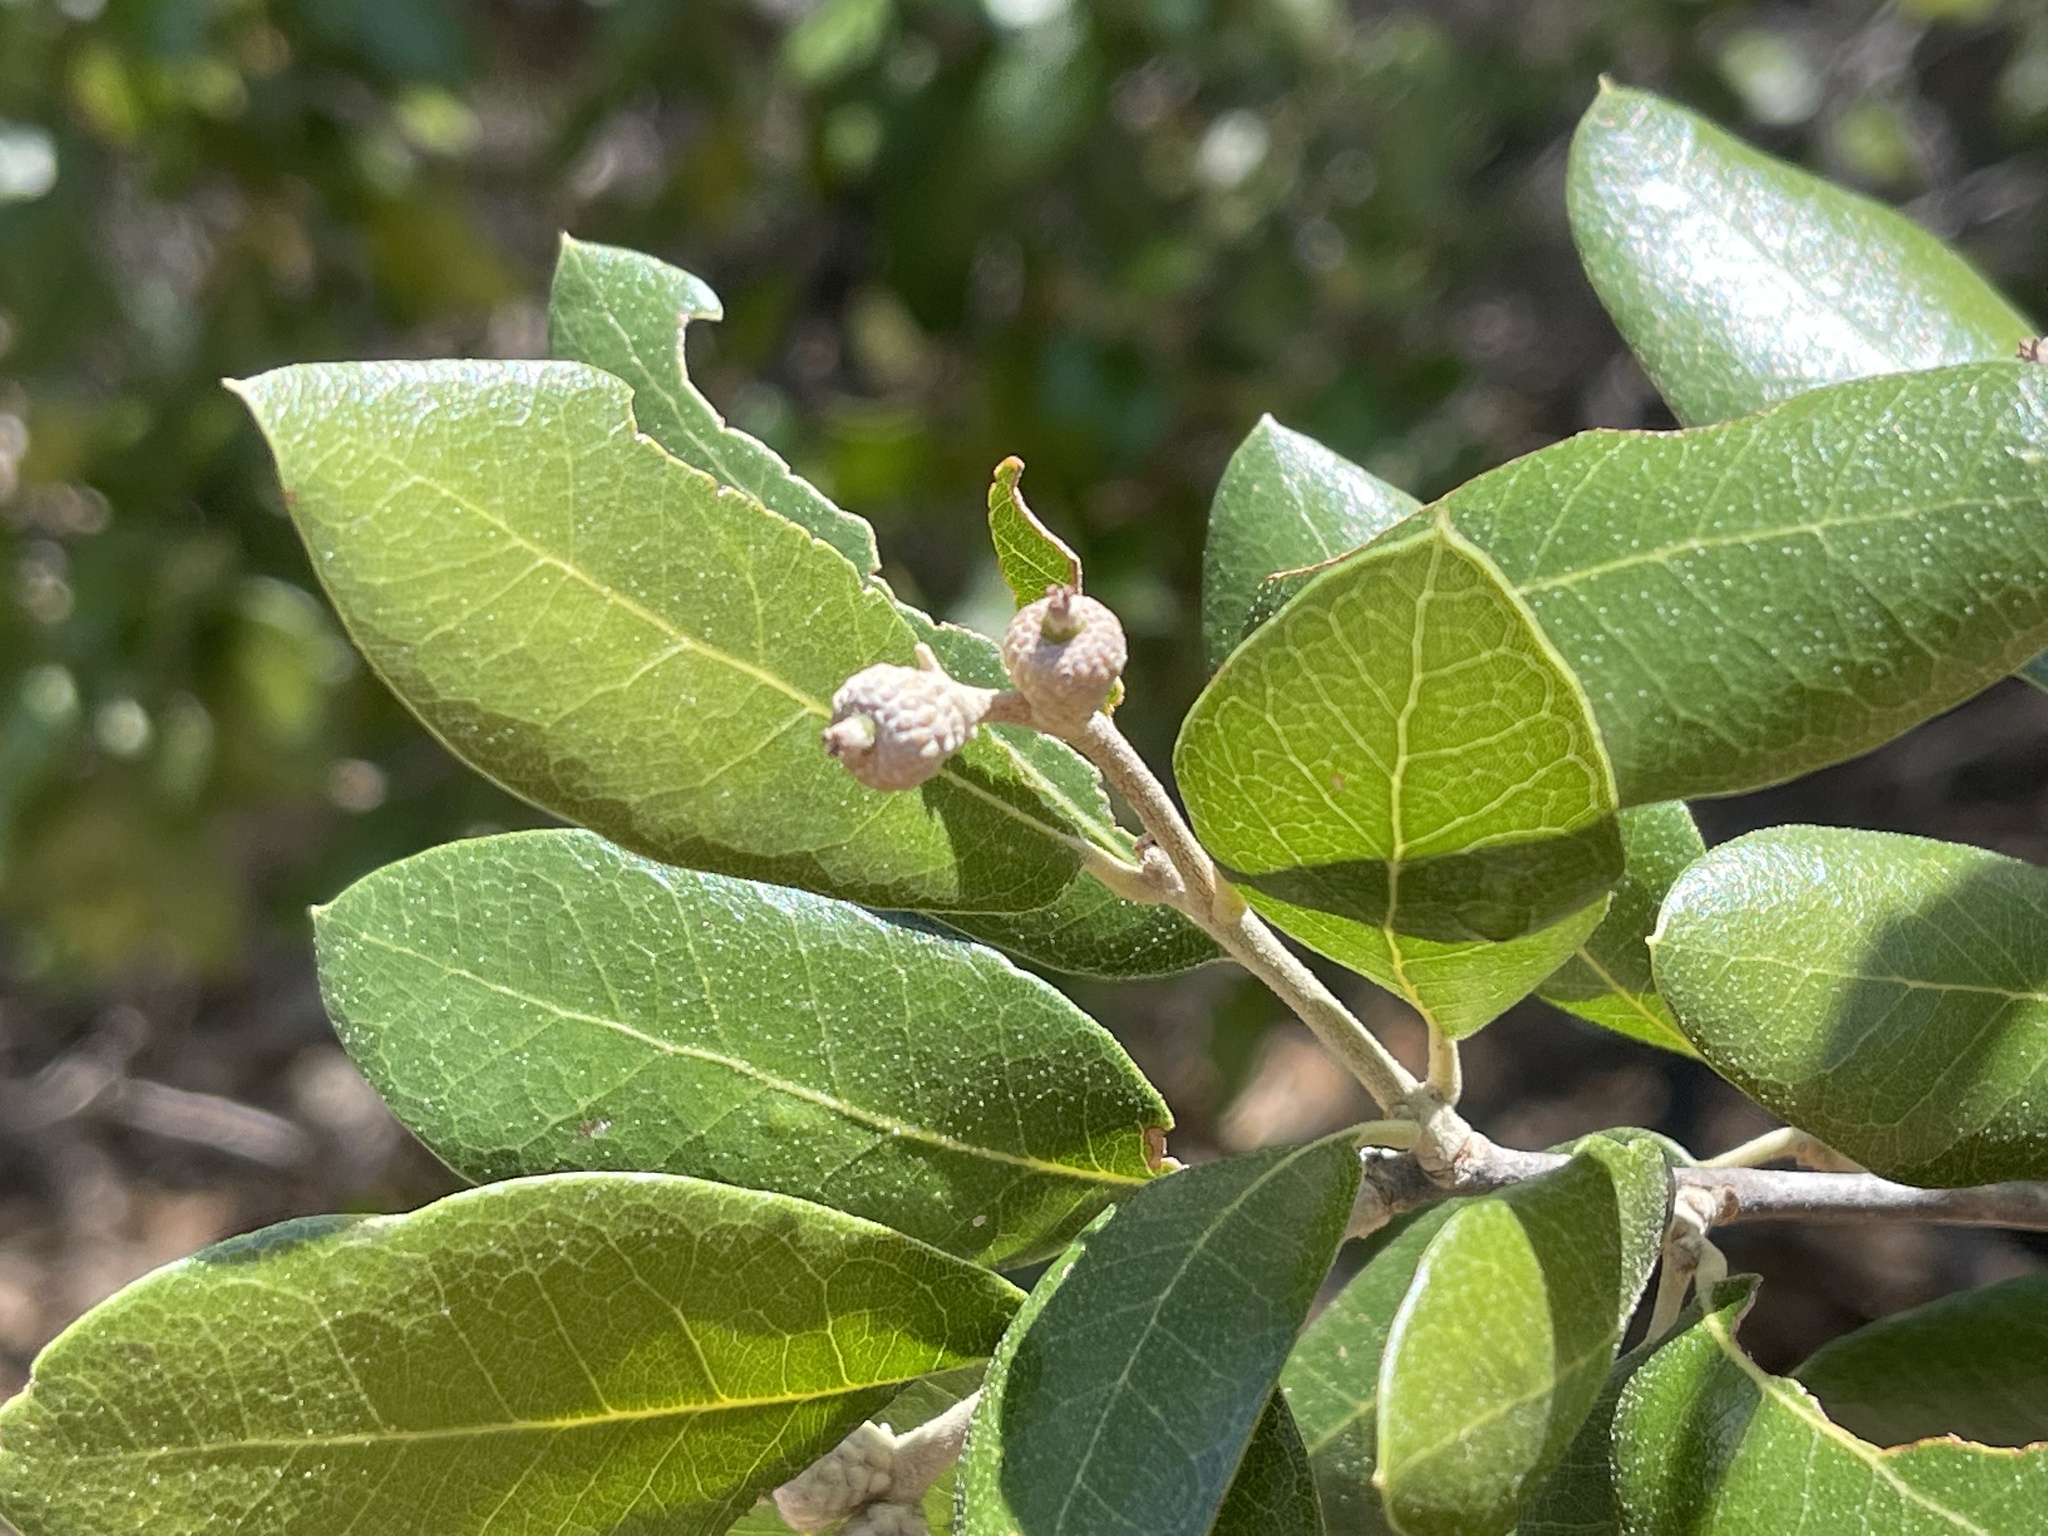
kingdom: Plantae
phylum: Tracheophyta
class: Magnoliopsida
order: Fagales
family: Fagaceae
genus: Quercus
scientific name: Quercus fusiformis
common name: Texas live oak
